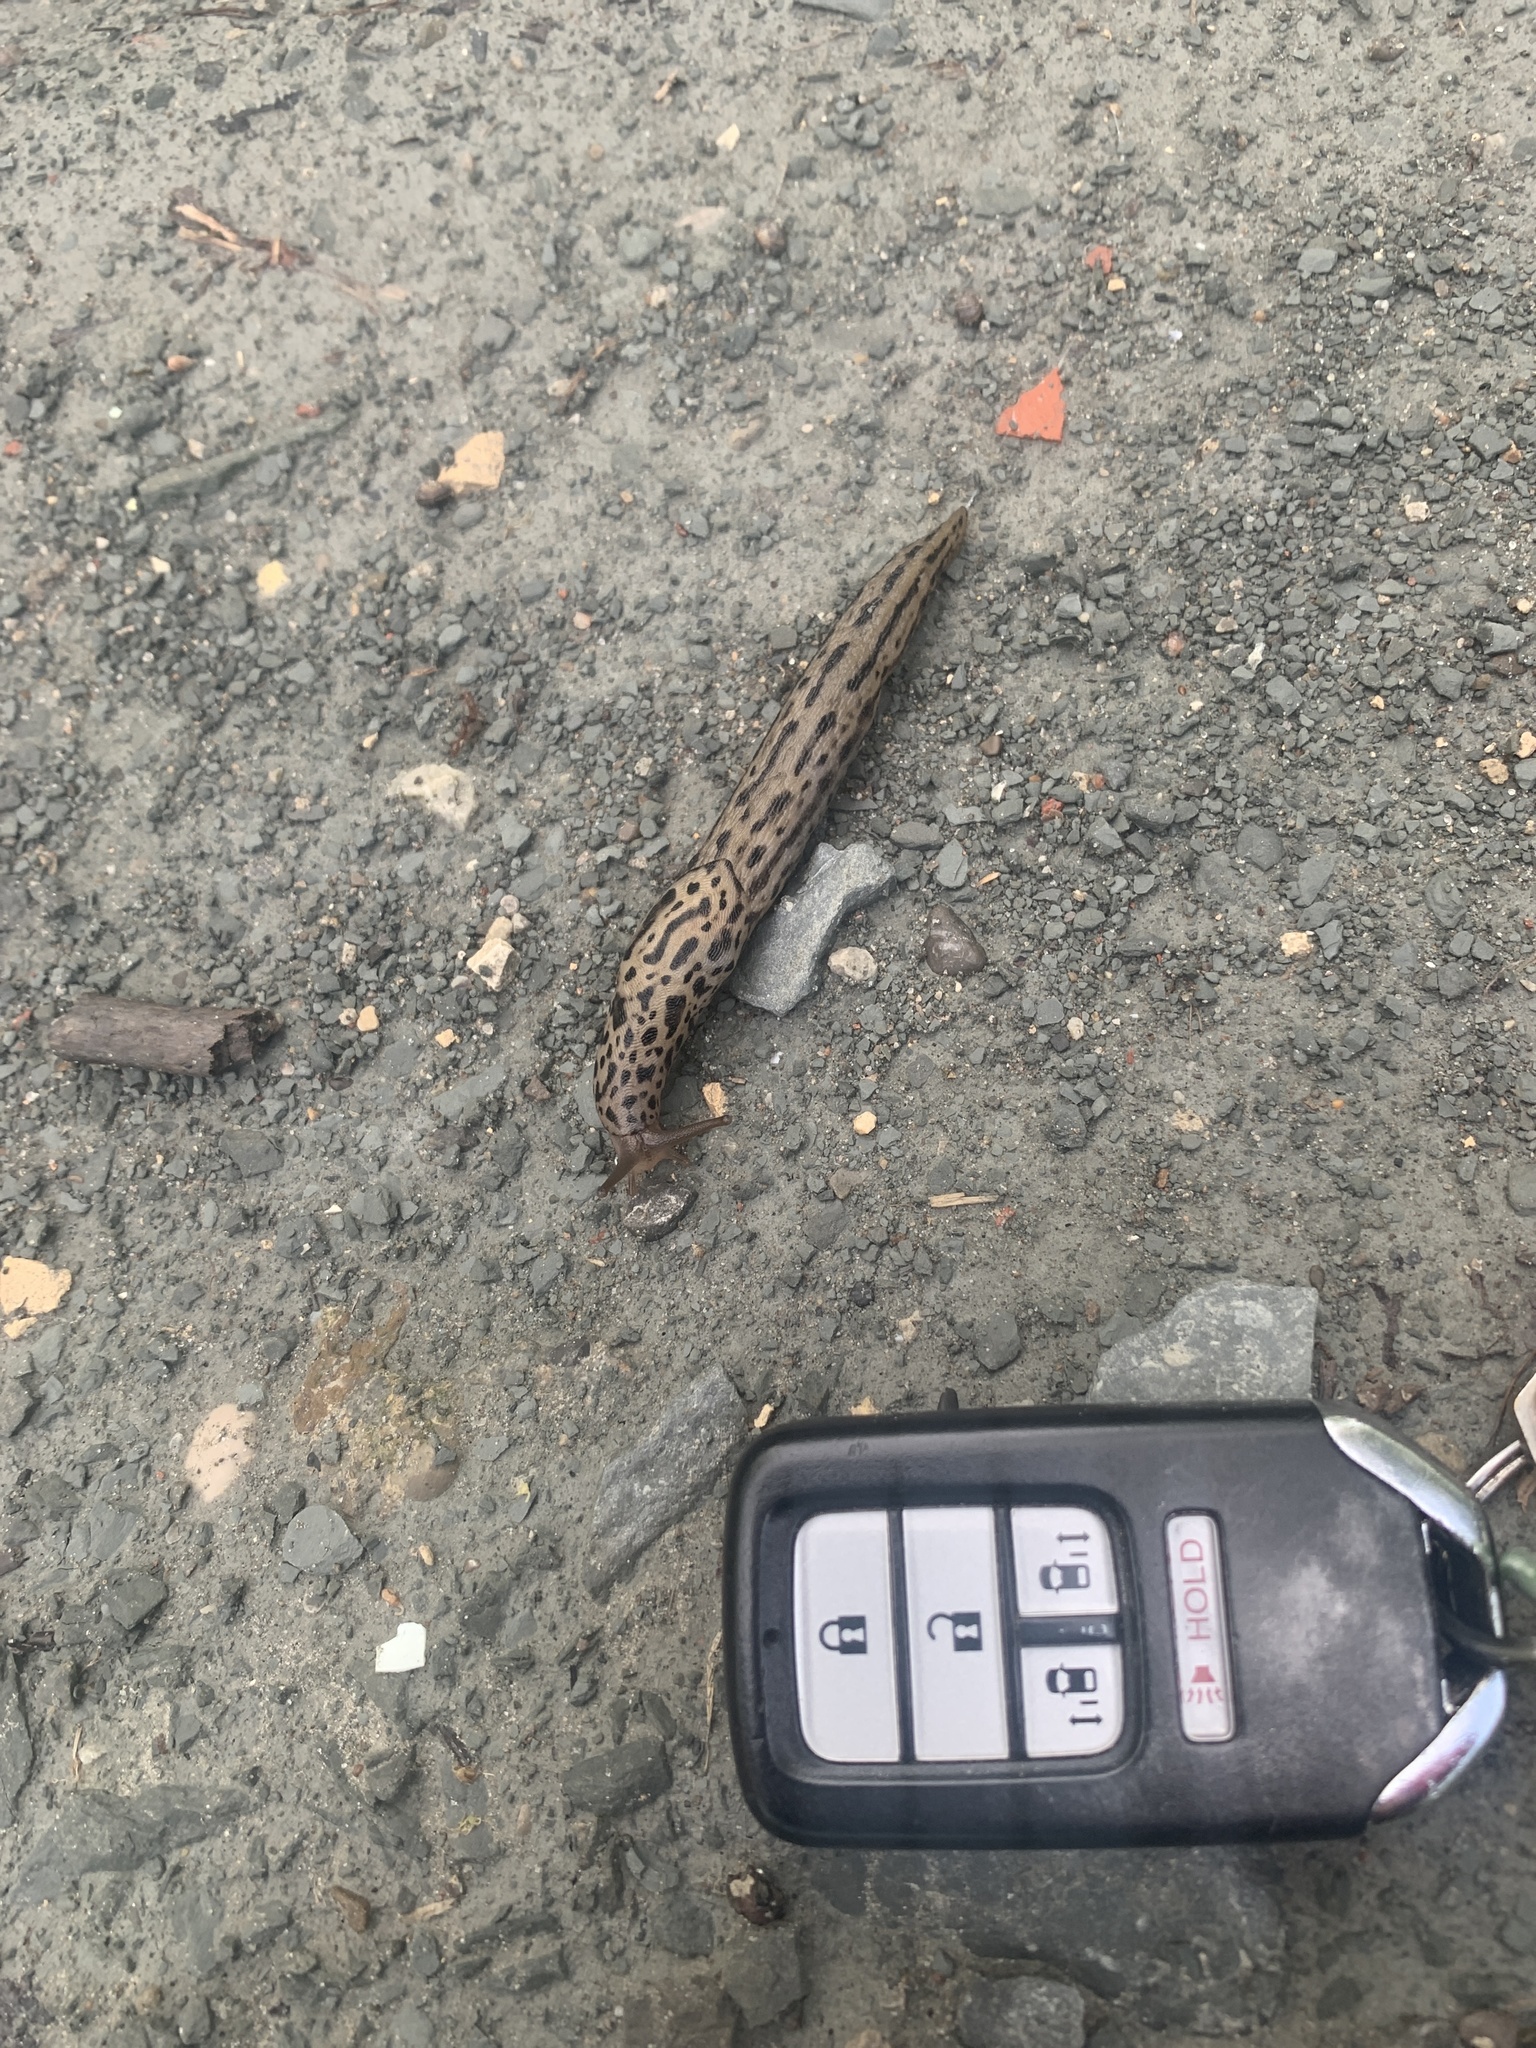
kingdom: Animalia
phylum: Mollusca
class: Gastropoda
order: Stylommatophora
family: Limacidae
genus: Limax
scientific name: Limax maximus
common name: Great grey slug
